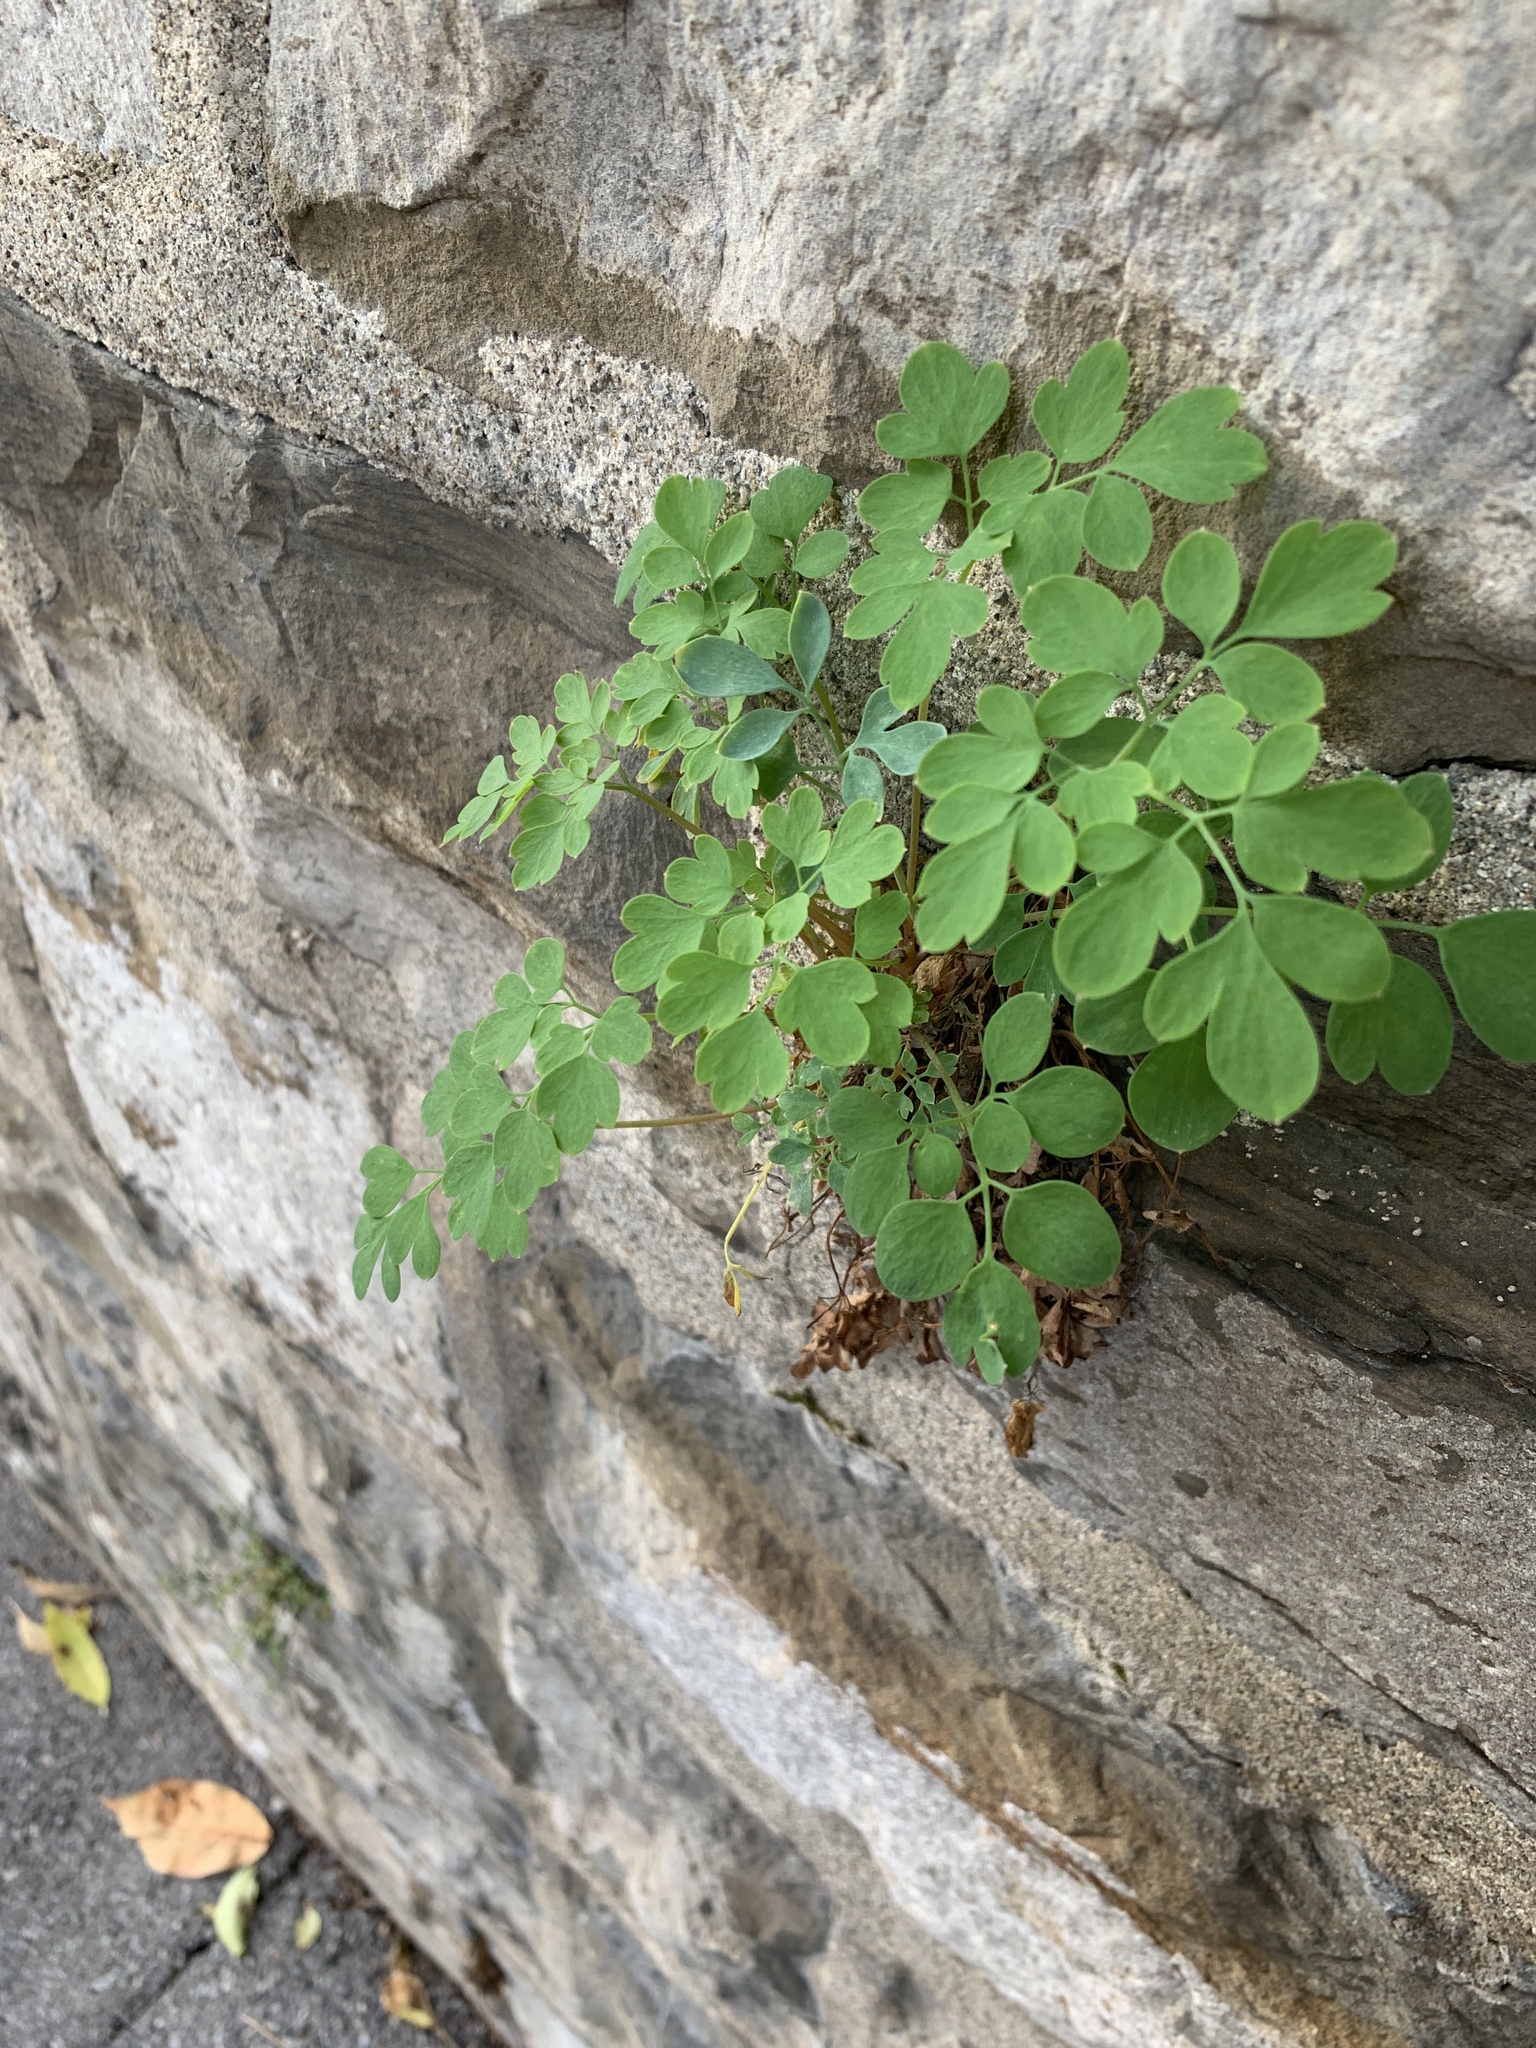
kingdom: Plantae
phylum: Tracheophyta
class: Magnoliopsida
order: Ranunculales
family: Papaveraceae
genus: Pseudofumaria
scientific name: Pseudofumaria lutea
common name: Yellow corydalis
